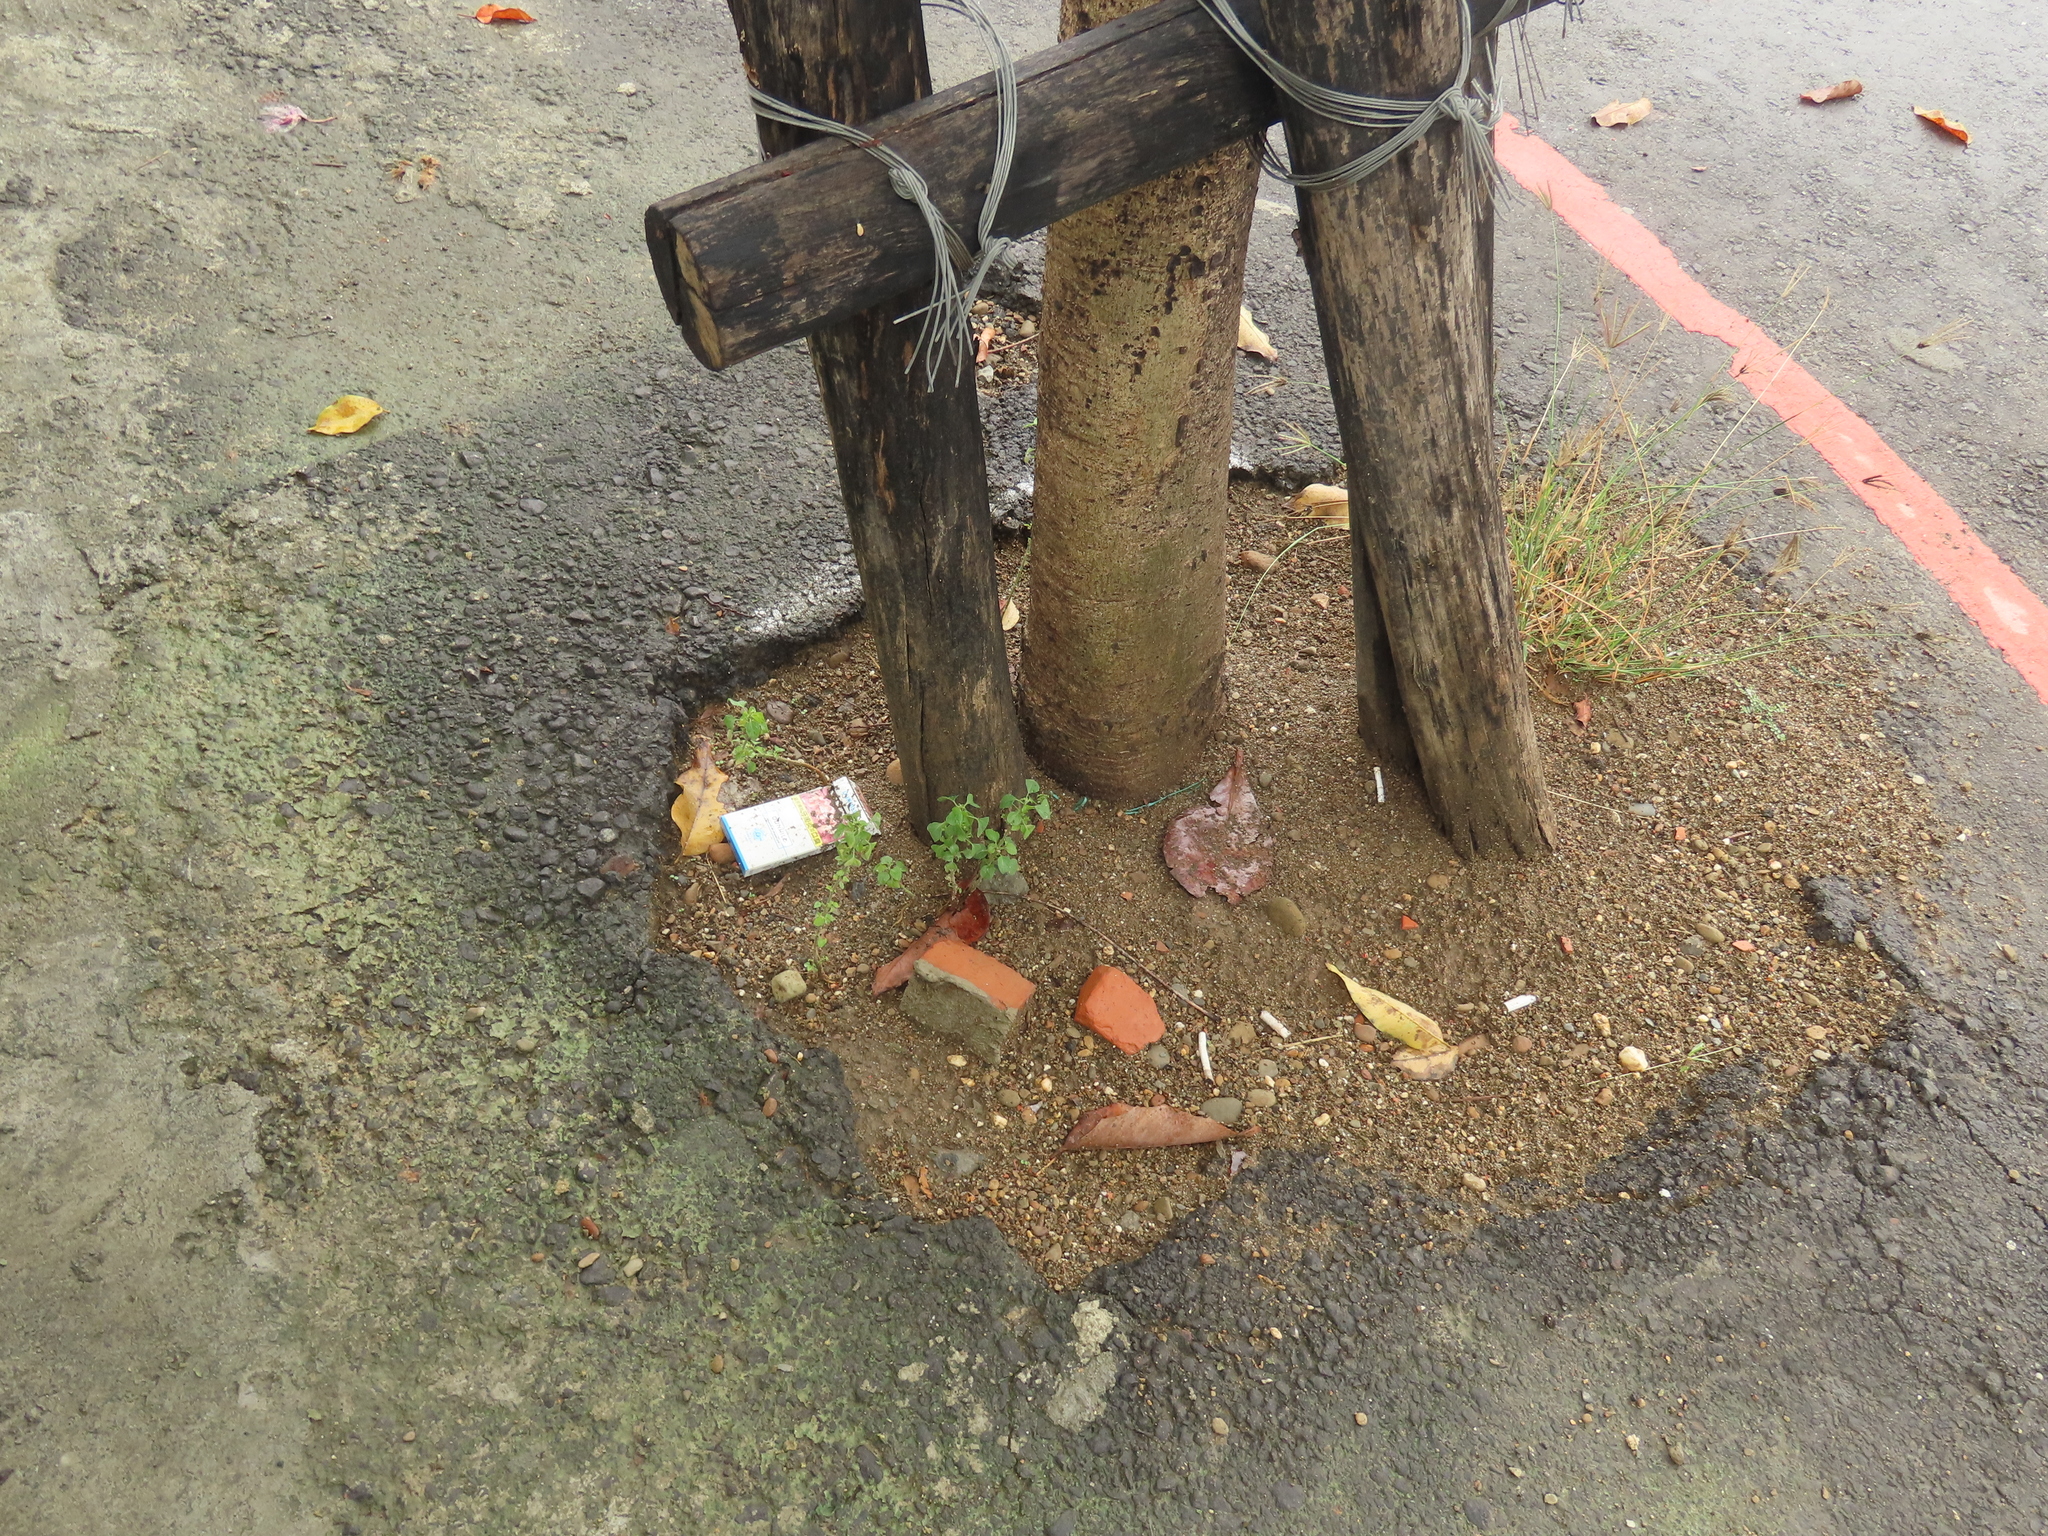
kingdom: Plantae
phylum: Tracheophyta
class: Magnoliopsida
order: Malpighiales
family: Euphorbiaceae
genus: Acalypha
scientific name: Acalypha indica
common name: Indian acalypha
